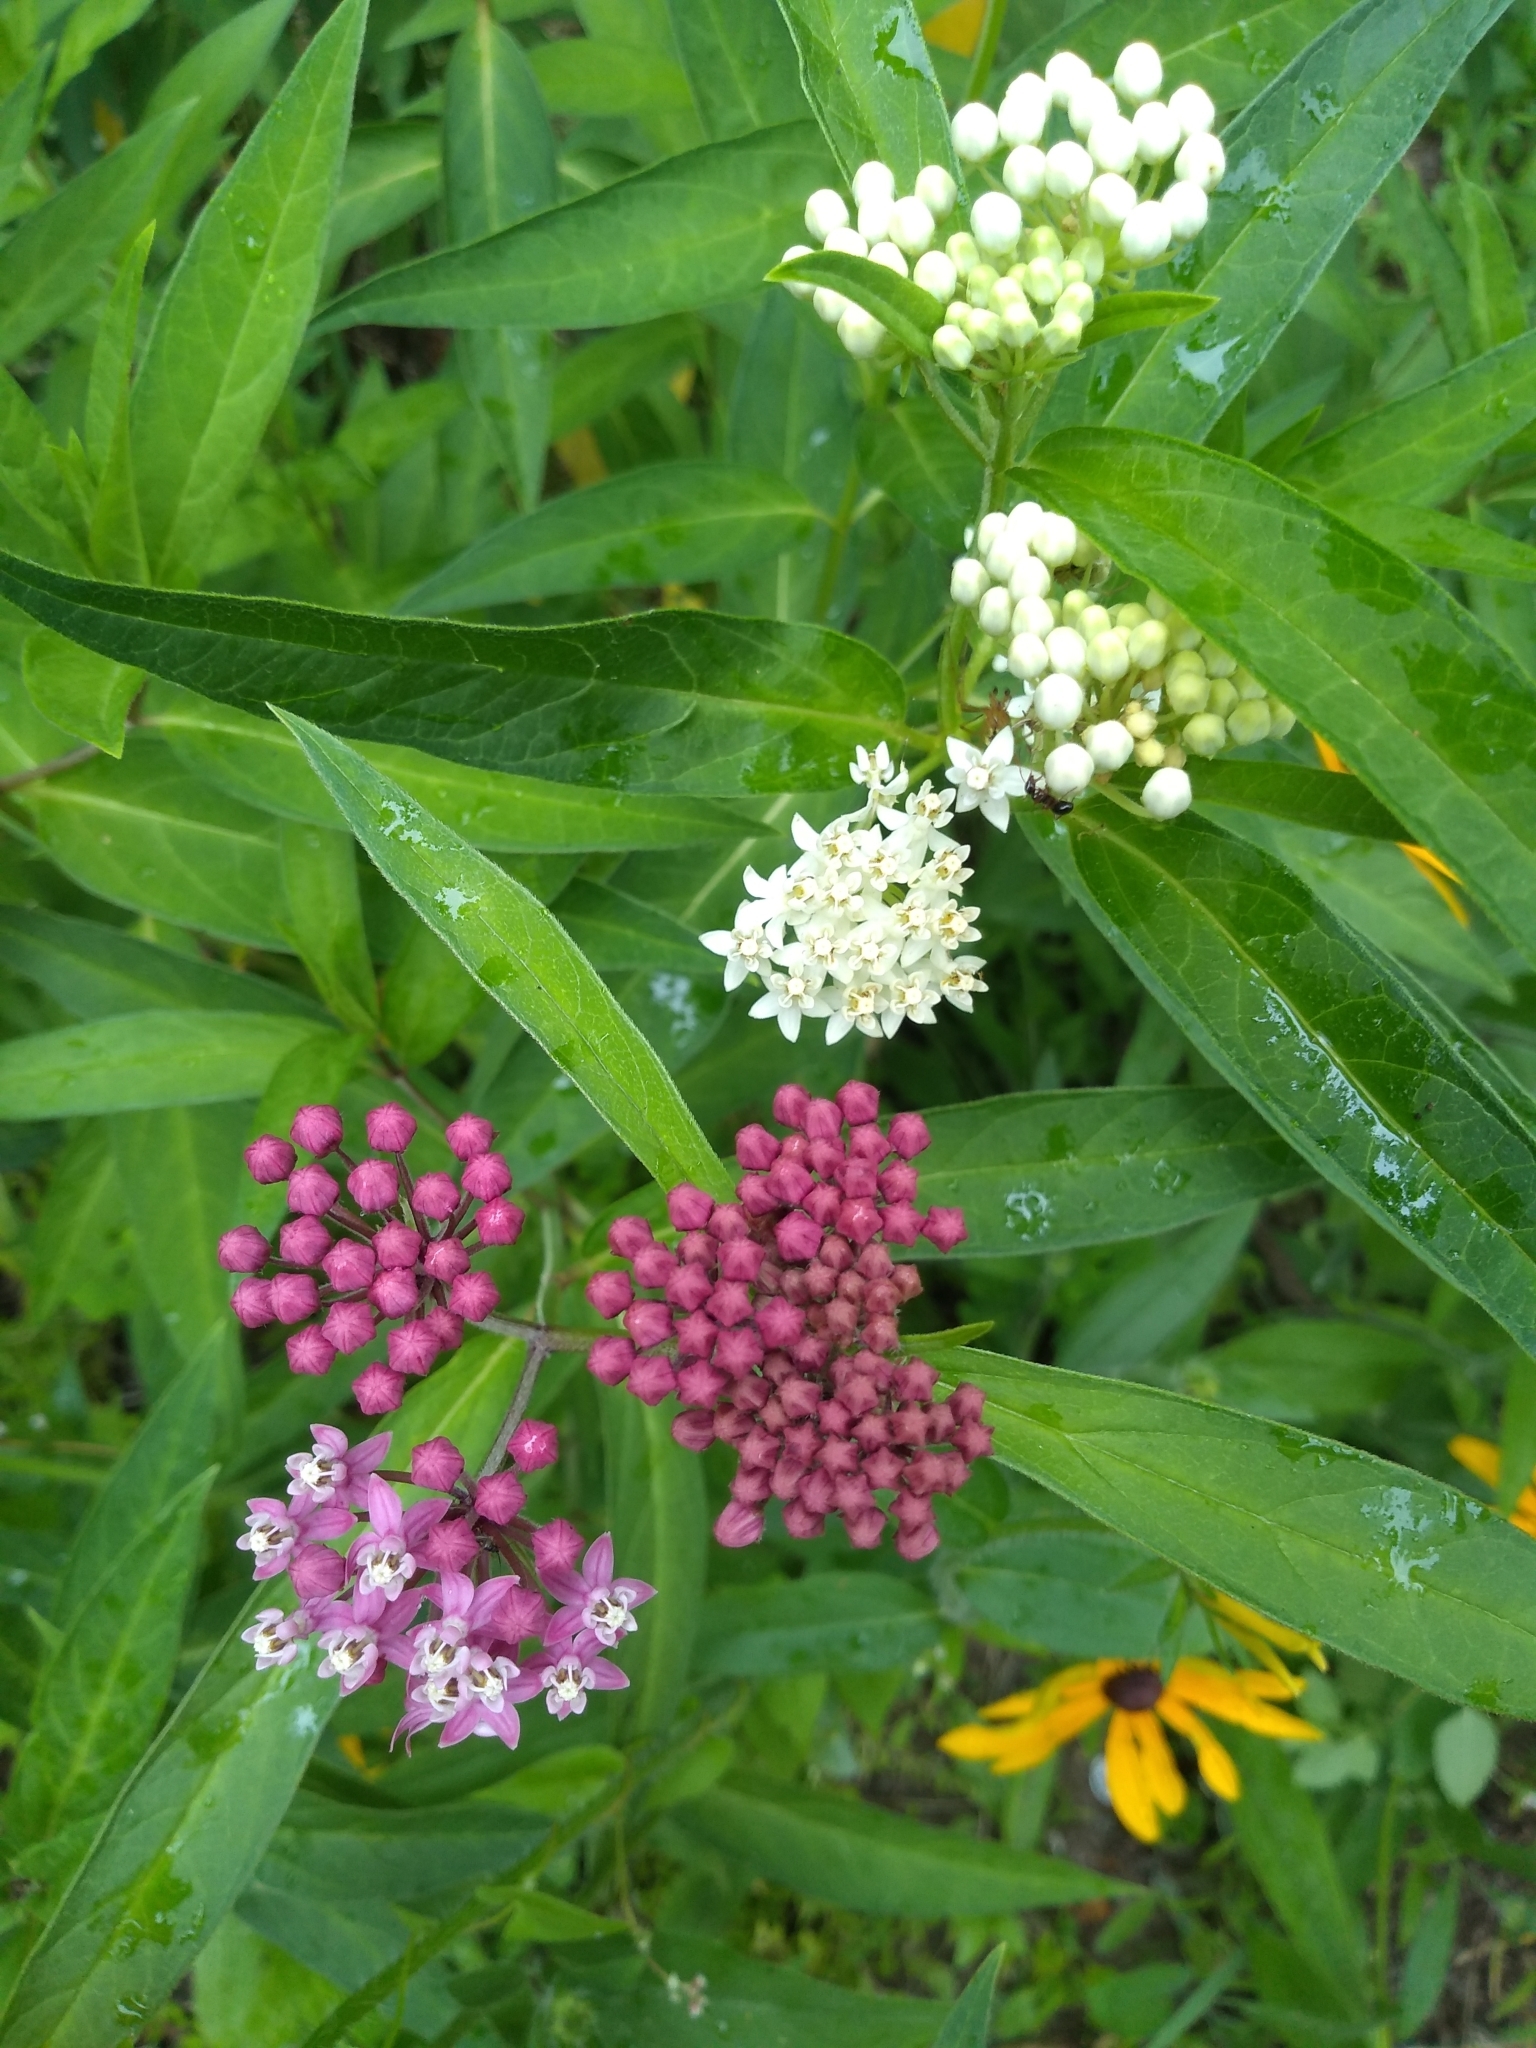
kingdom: Plantae
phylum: Tracheophyta
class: Magnoliopsida
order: Gentianales
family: Apocynaceae
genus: Asclepias
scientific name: Asclepias incarnata
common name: Swamp milkweed
